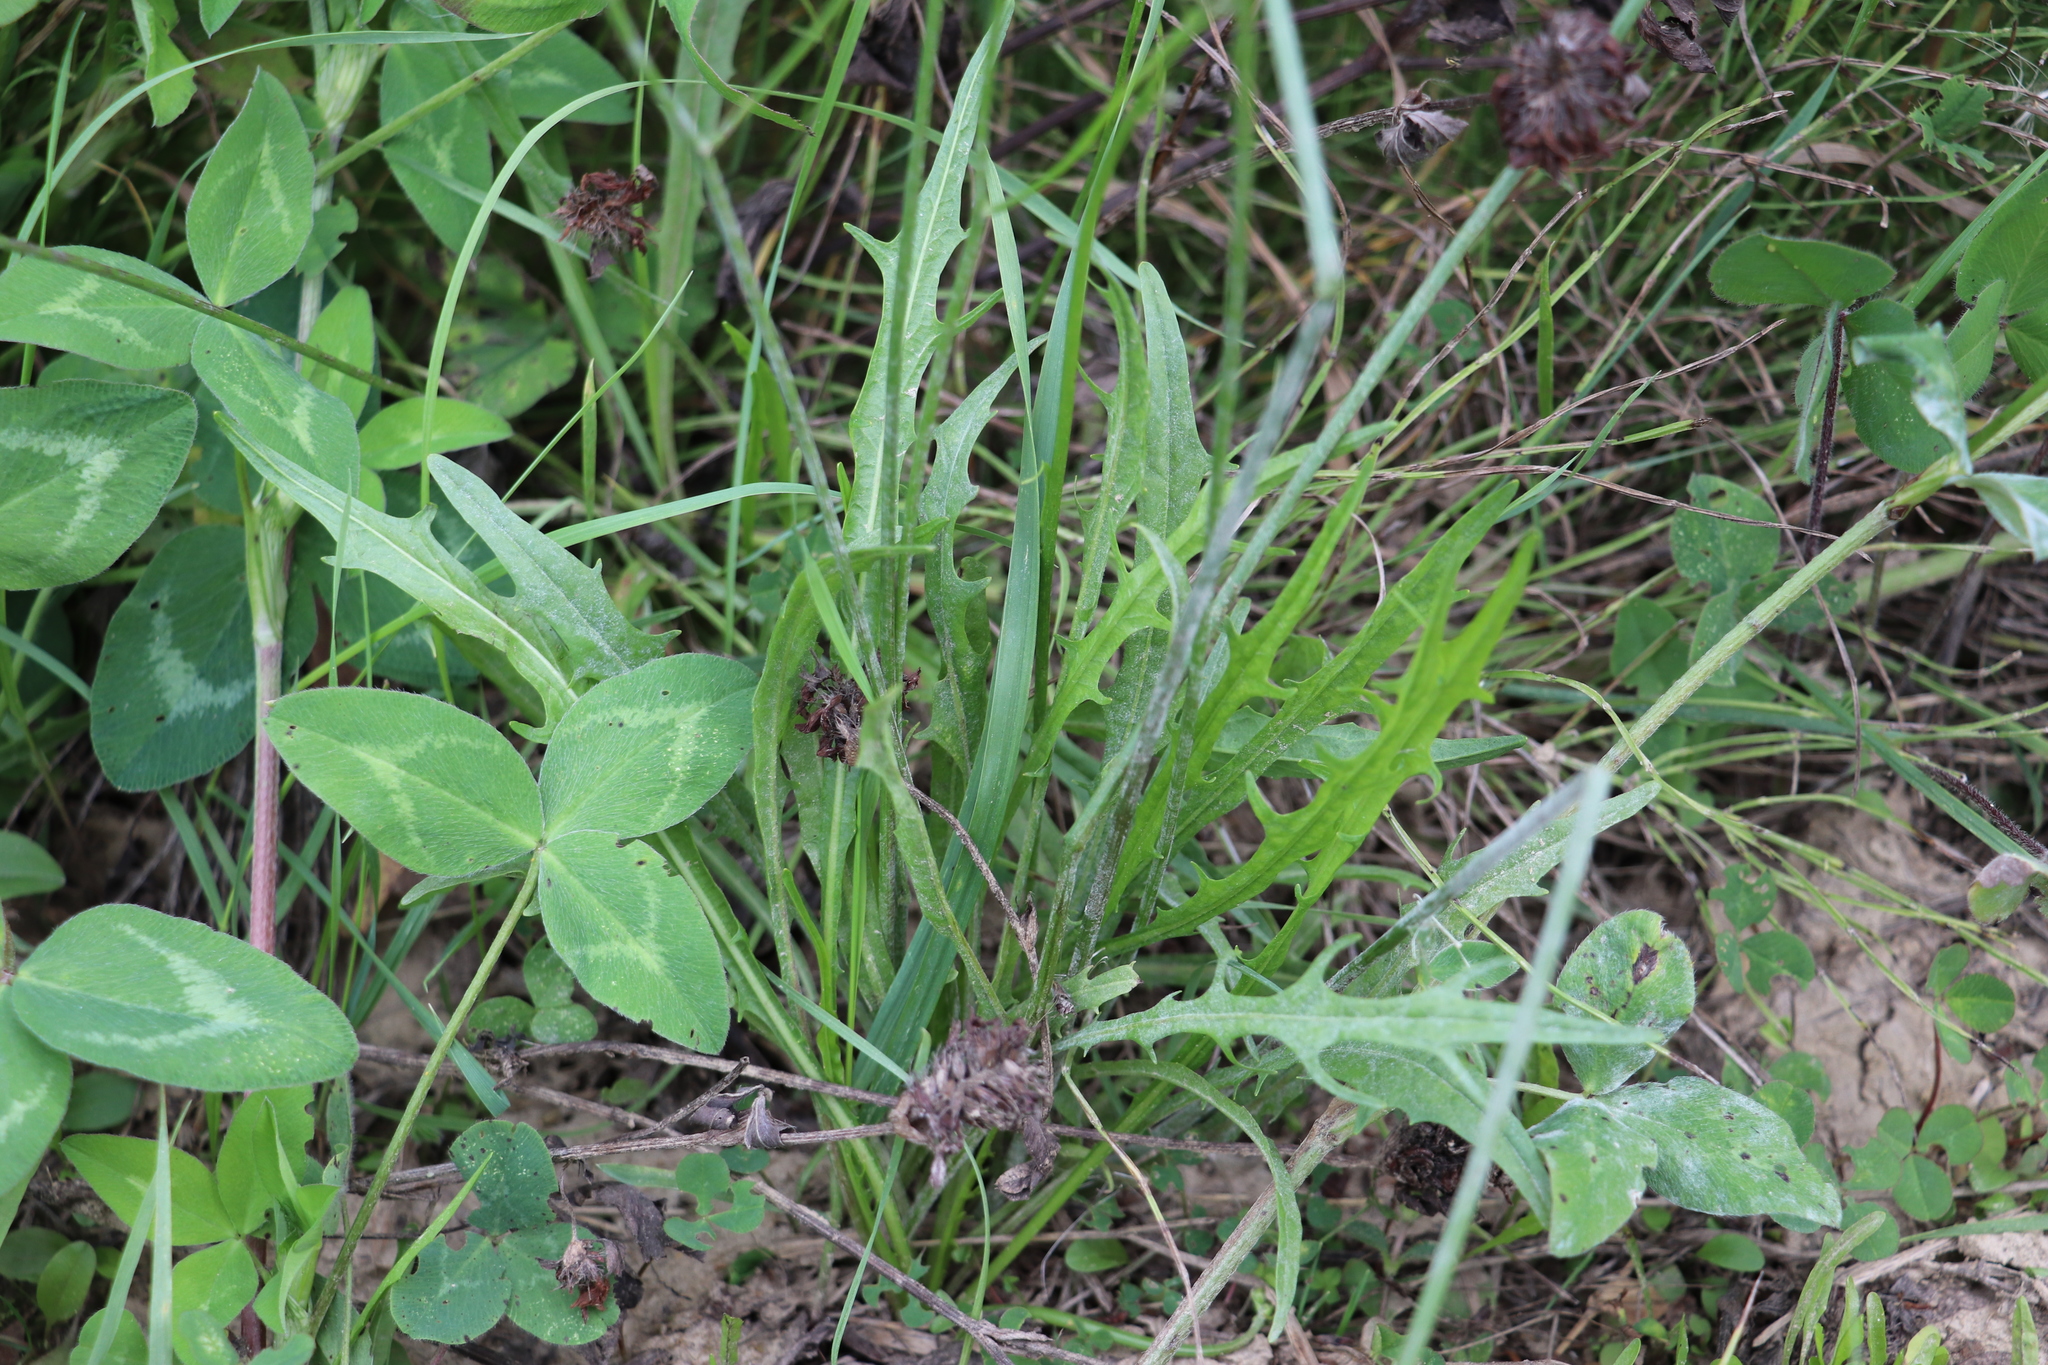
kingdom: Plantae
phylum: Tracheophyta
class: Magnoliopsida
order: Asterales
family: Asteraceae
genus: Scorzoneroides
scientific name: Scorzoneroides autumnalis
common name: Autumn hawkbit
